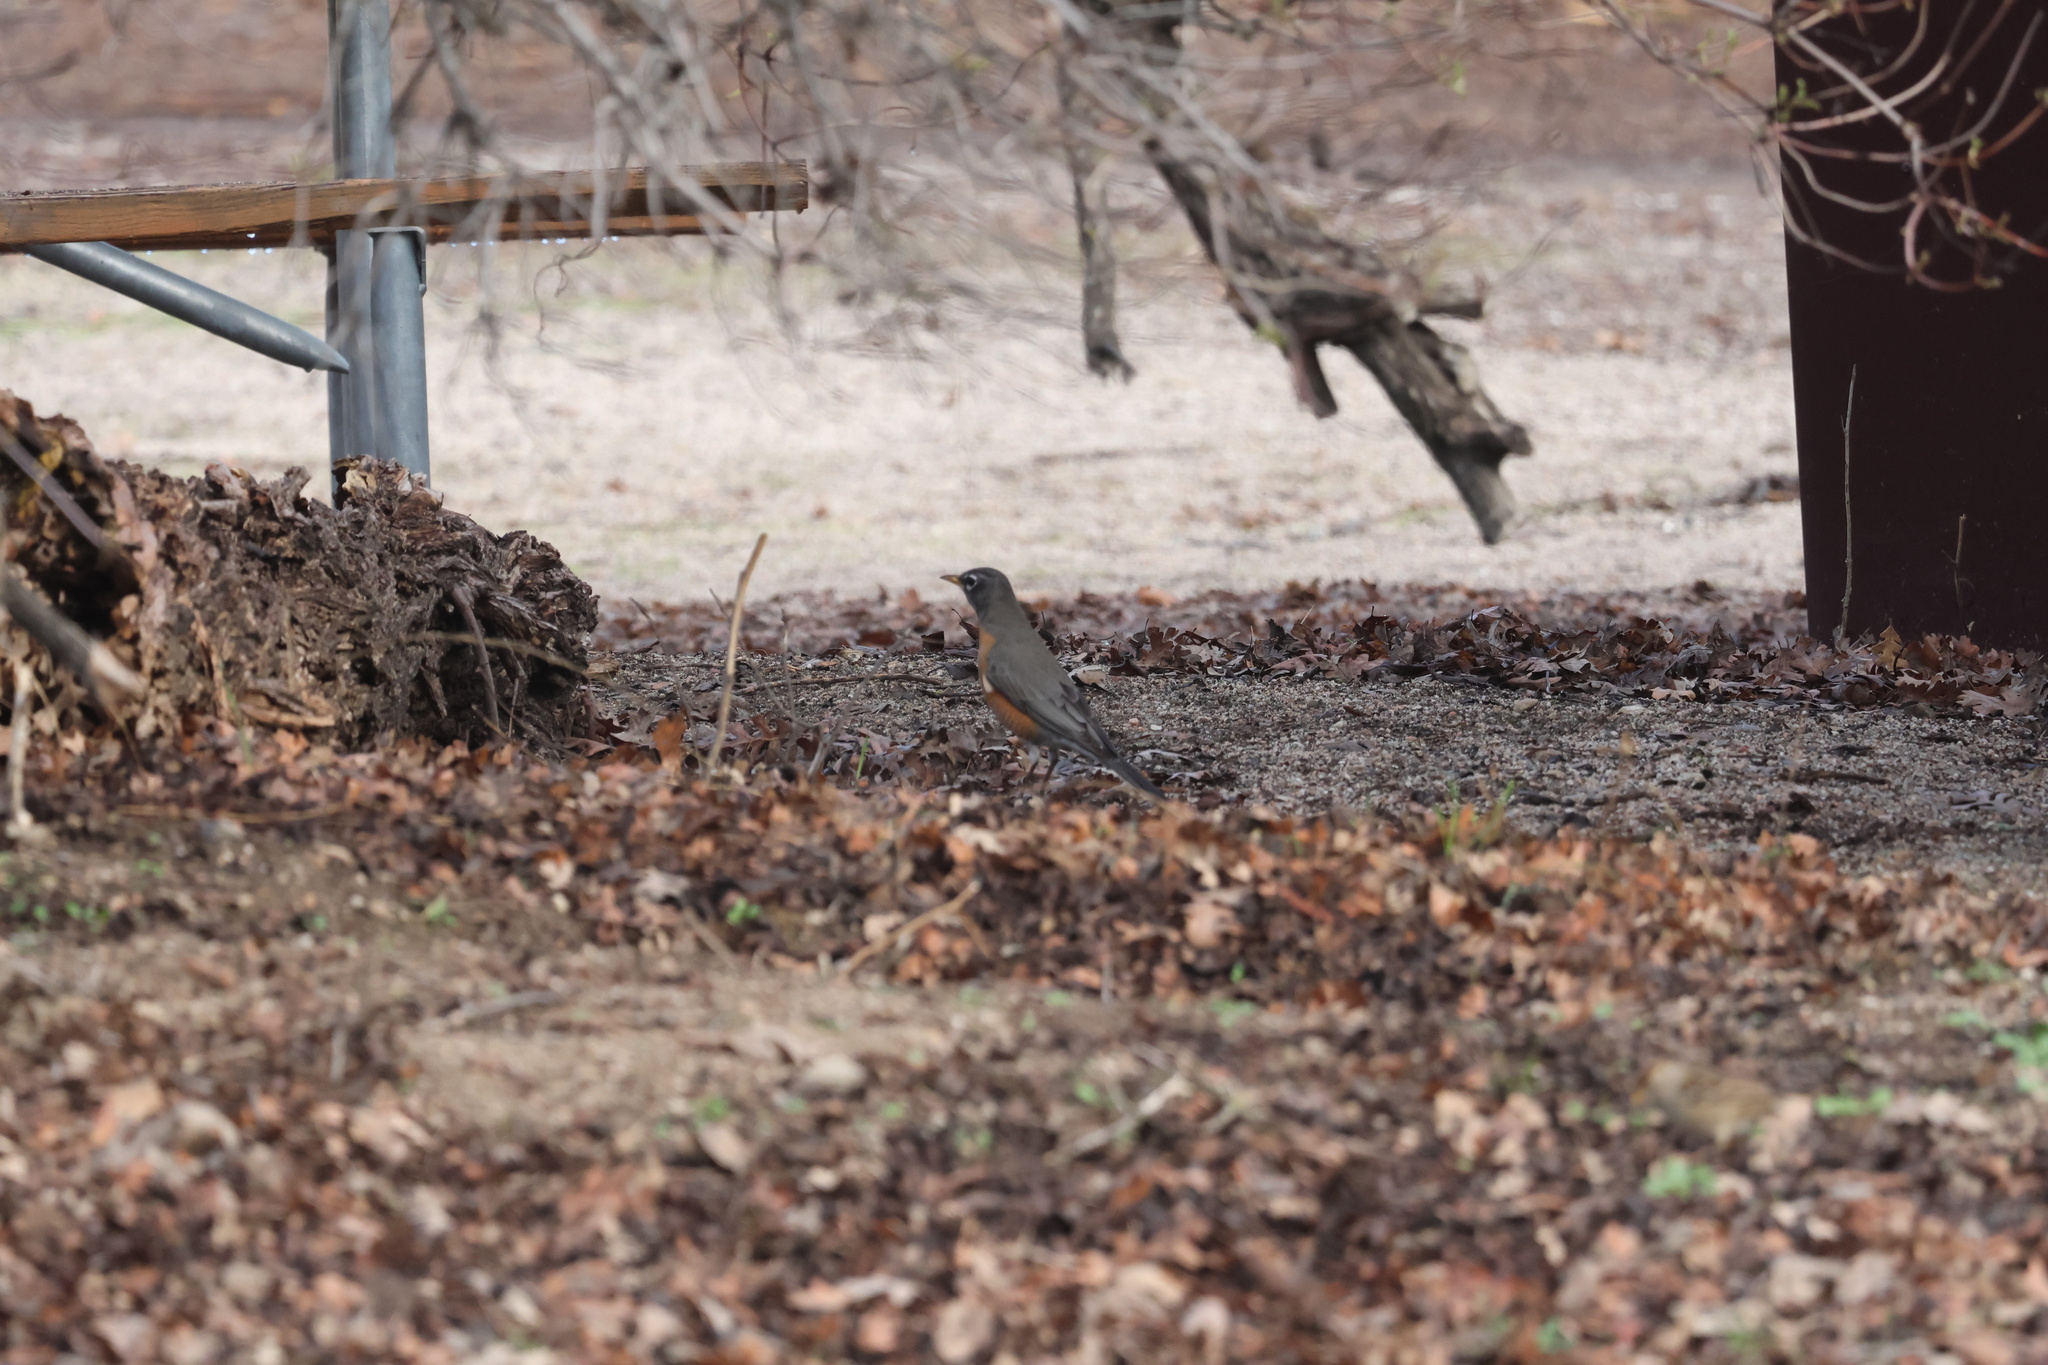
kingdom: Animalia
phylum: Chordata
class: Aves
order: Passeriformes
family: Turdidae
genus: Turdus
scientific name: Turdus migratorius
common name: American robin
